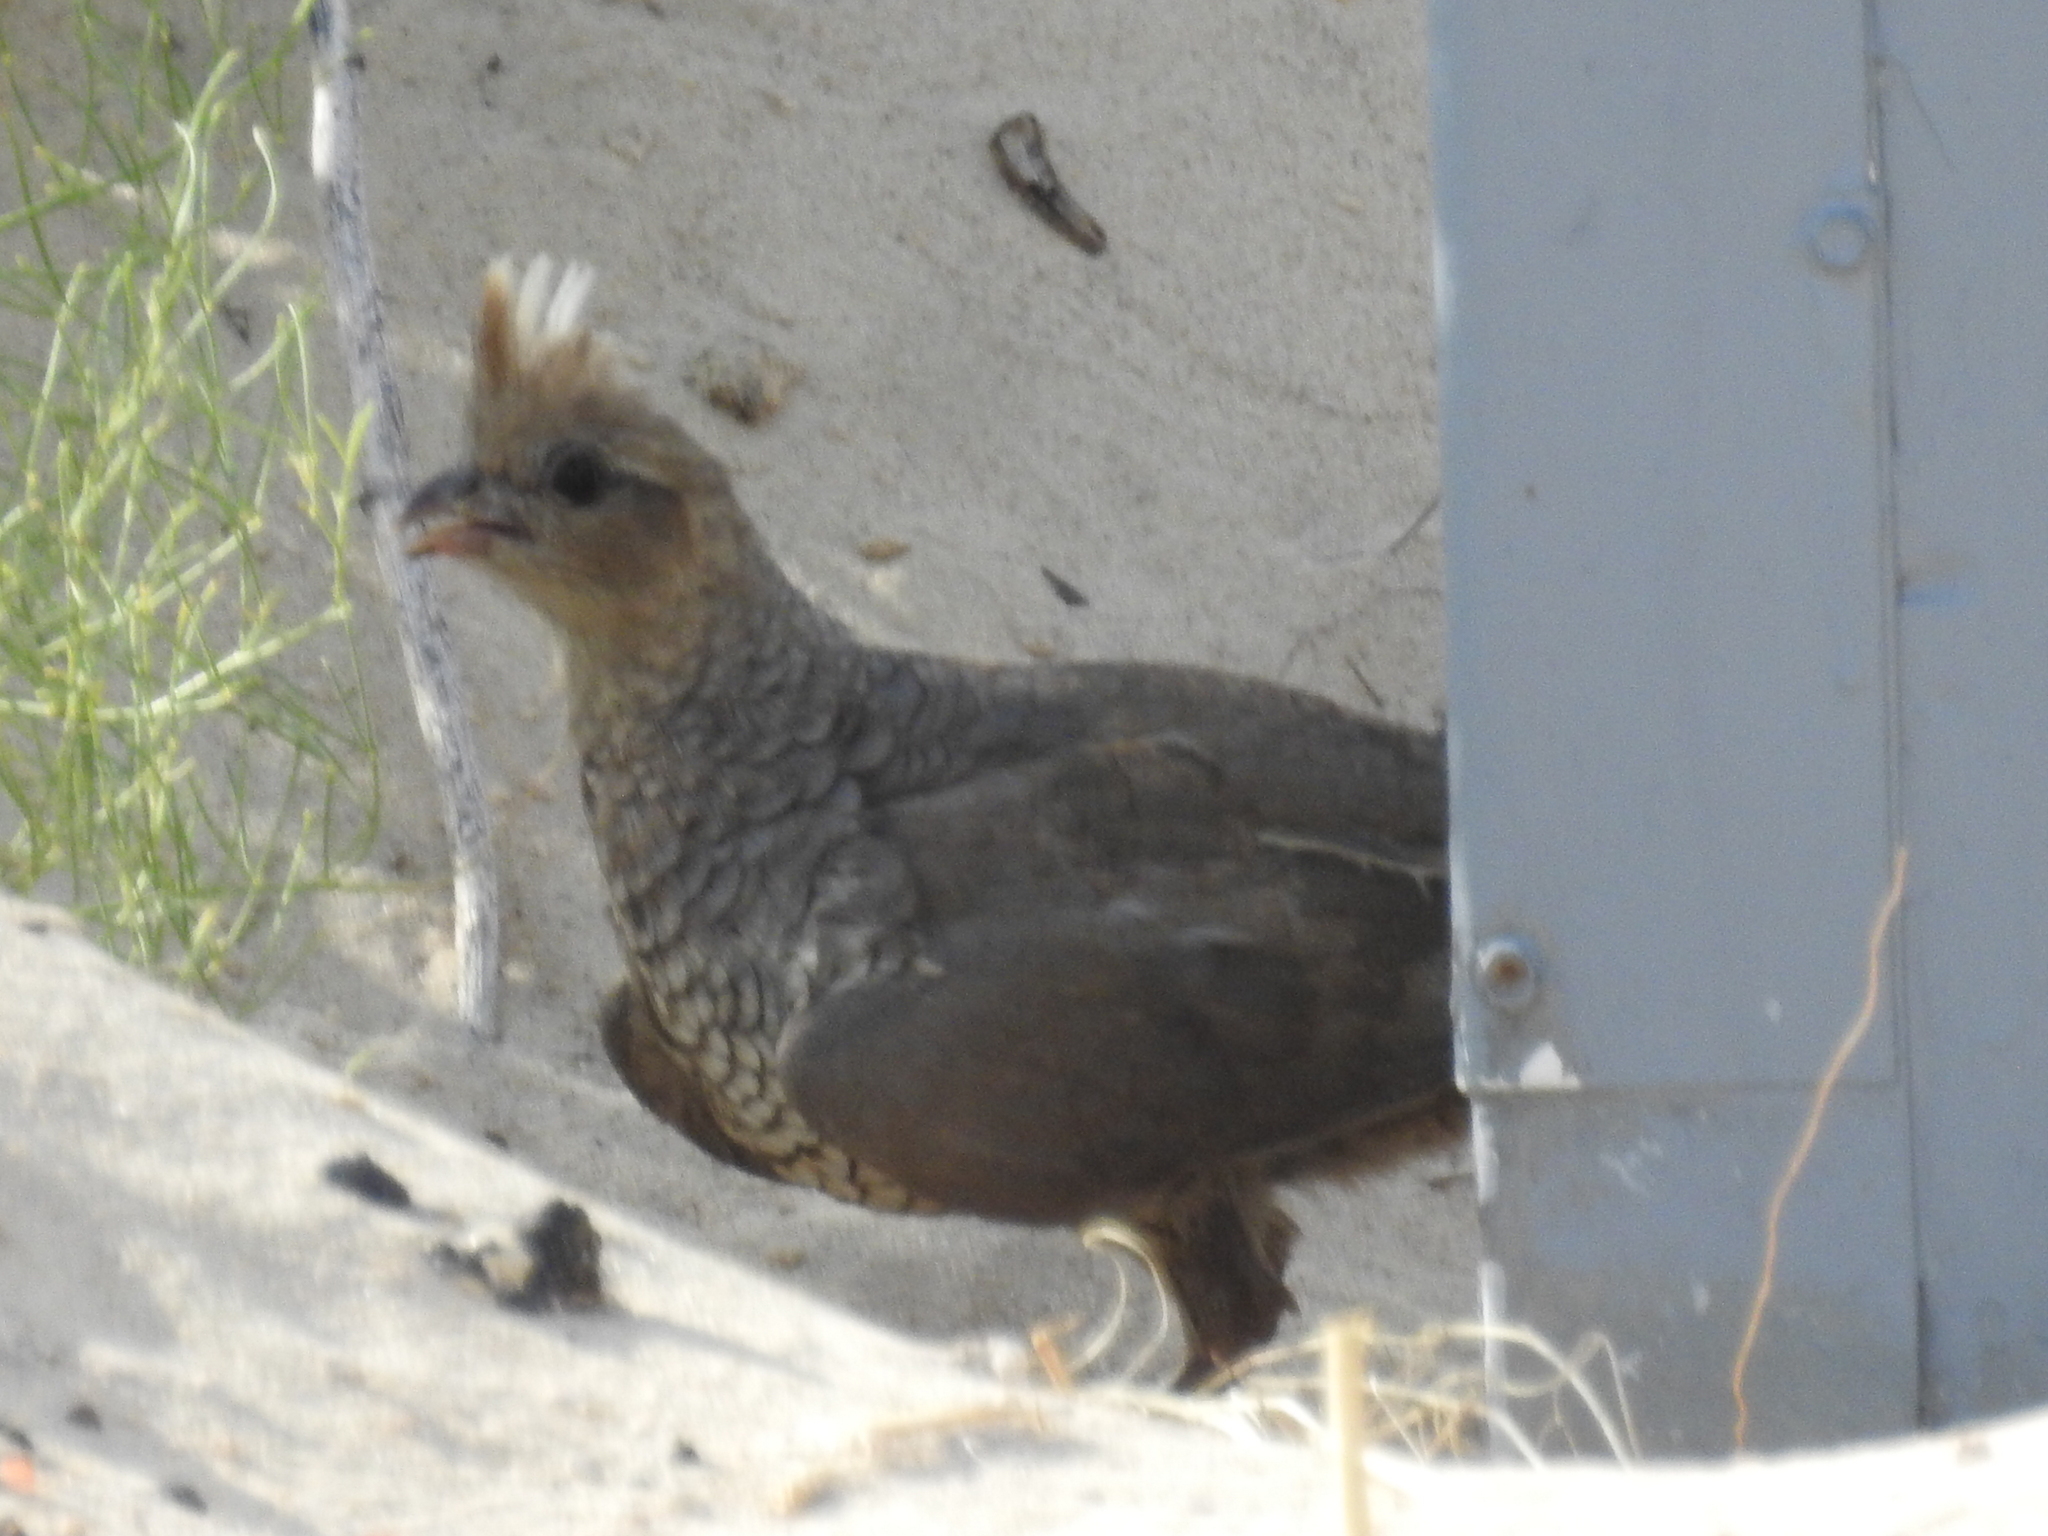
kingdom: Animalia
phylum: Chordata
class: Aves
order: Galliformes
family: Odontophoridae
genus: Callipepla
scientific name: Callipepla squamata
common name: Scaled quail
